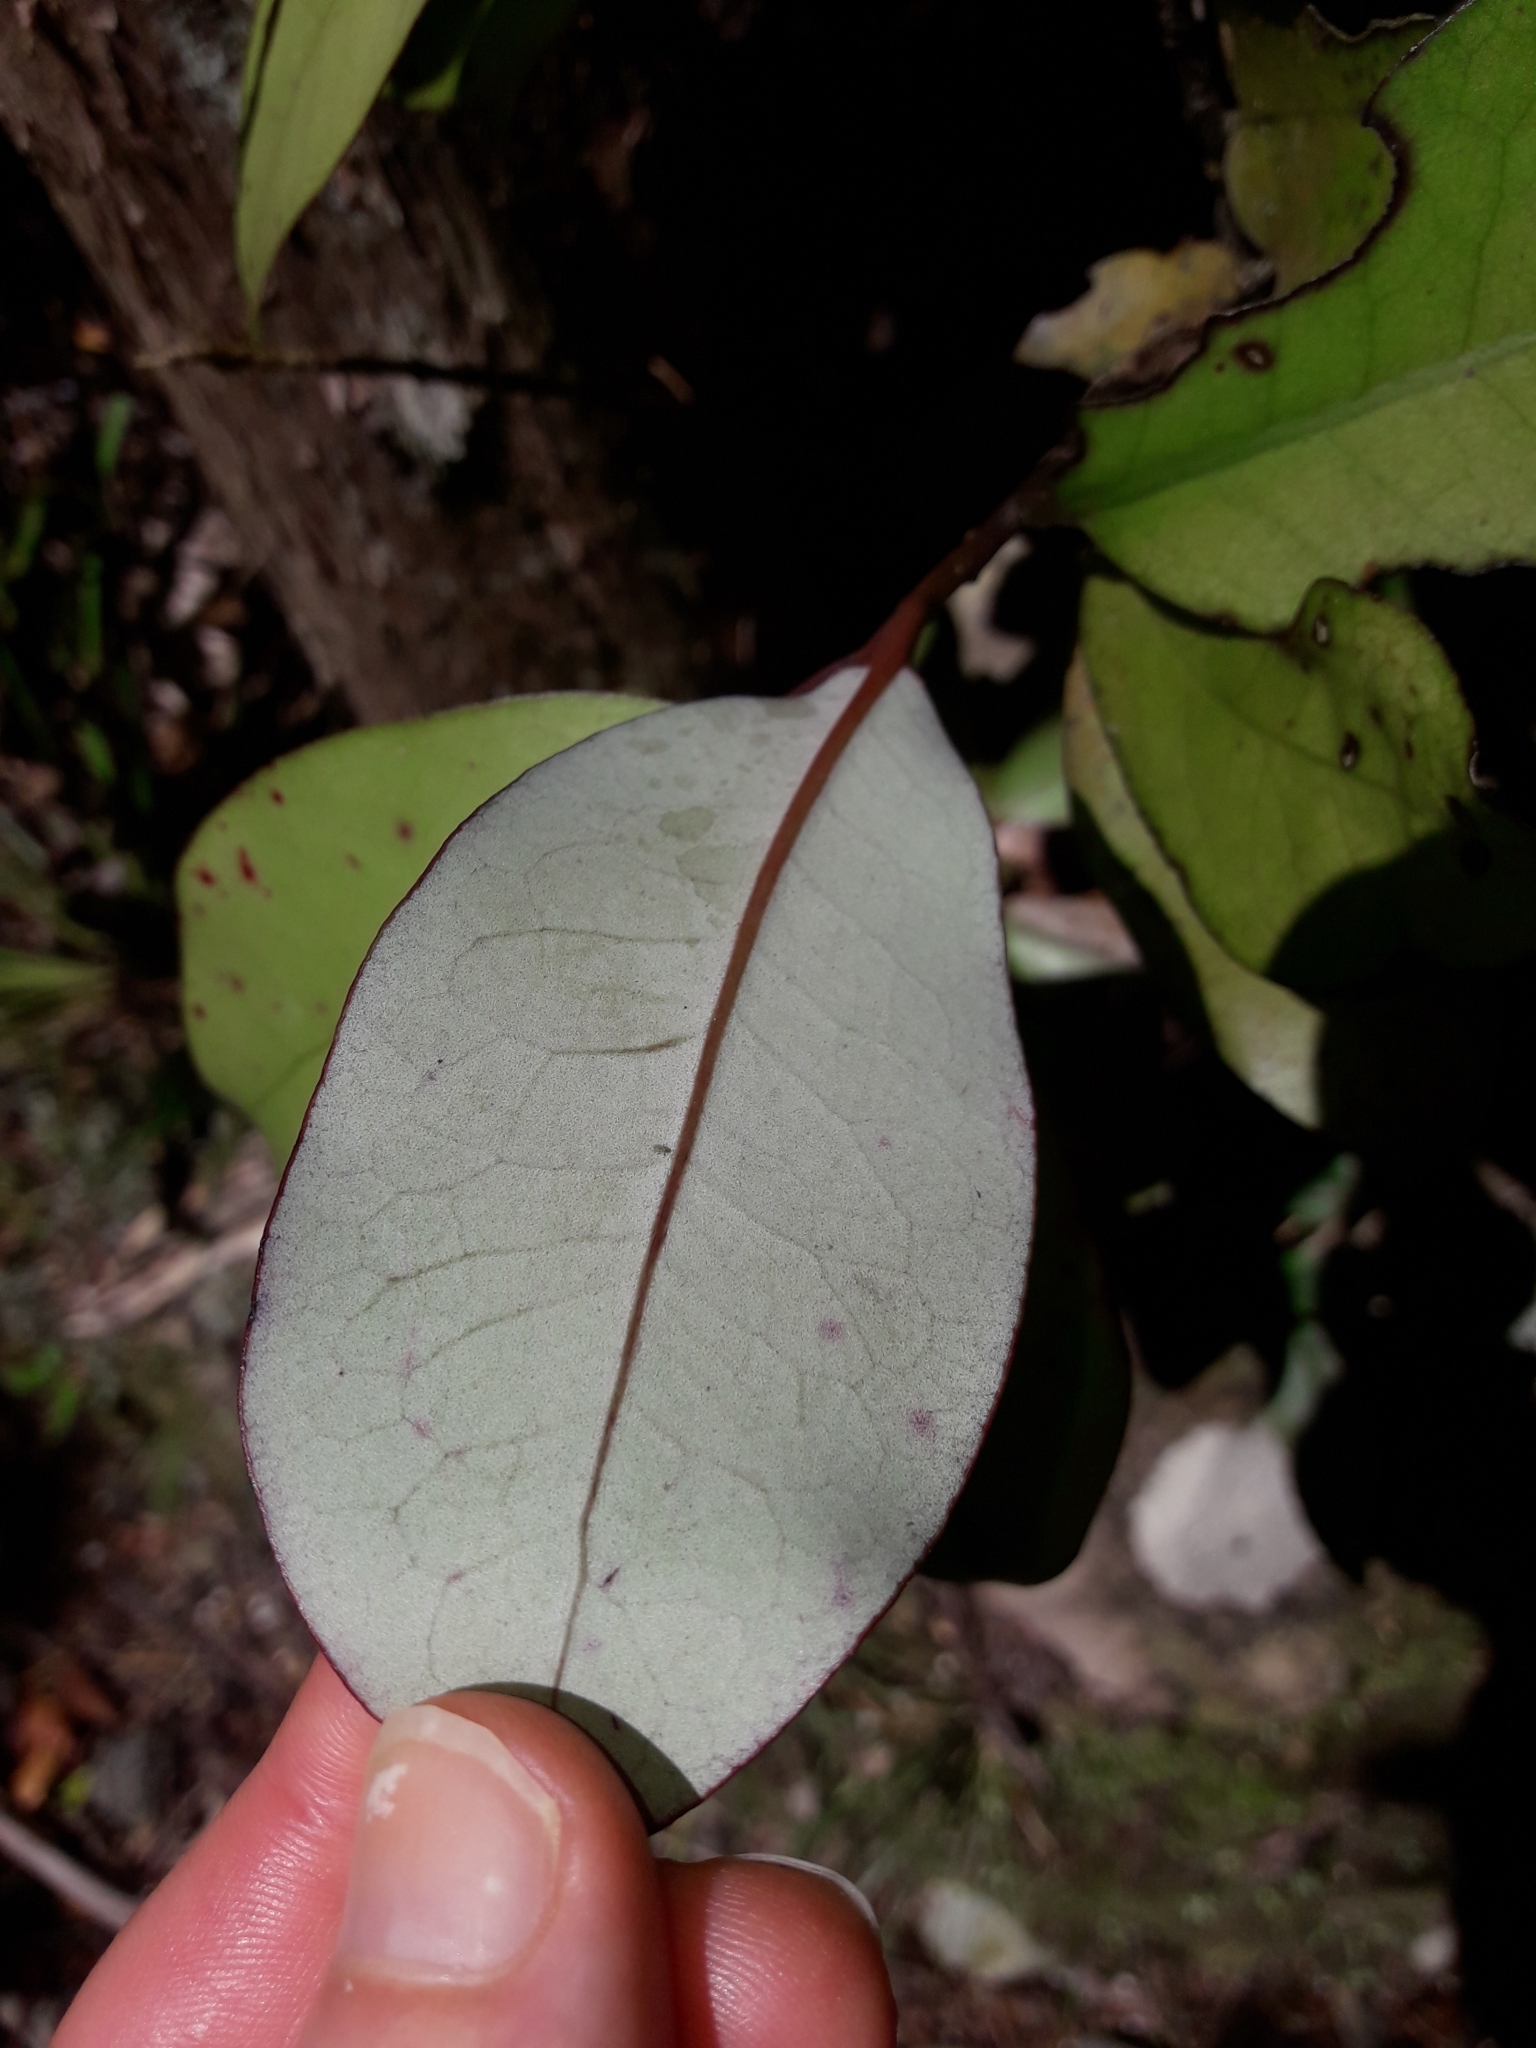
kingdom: Plantae
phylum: Tracheophyta
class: Magnoliopsida
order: Canellales
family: Winteraceae
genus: Pseudowintera
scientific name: Pseudowintera colorata
